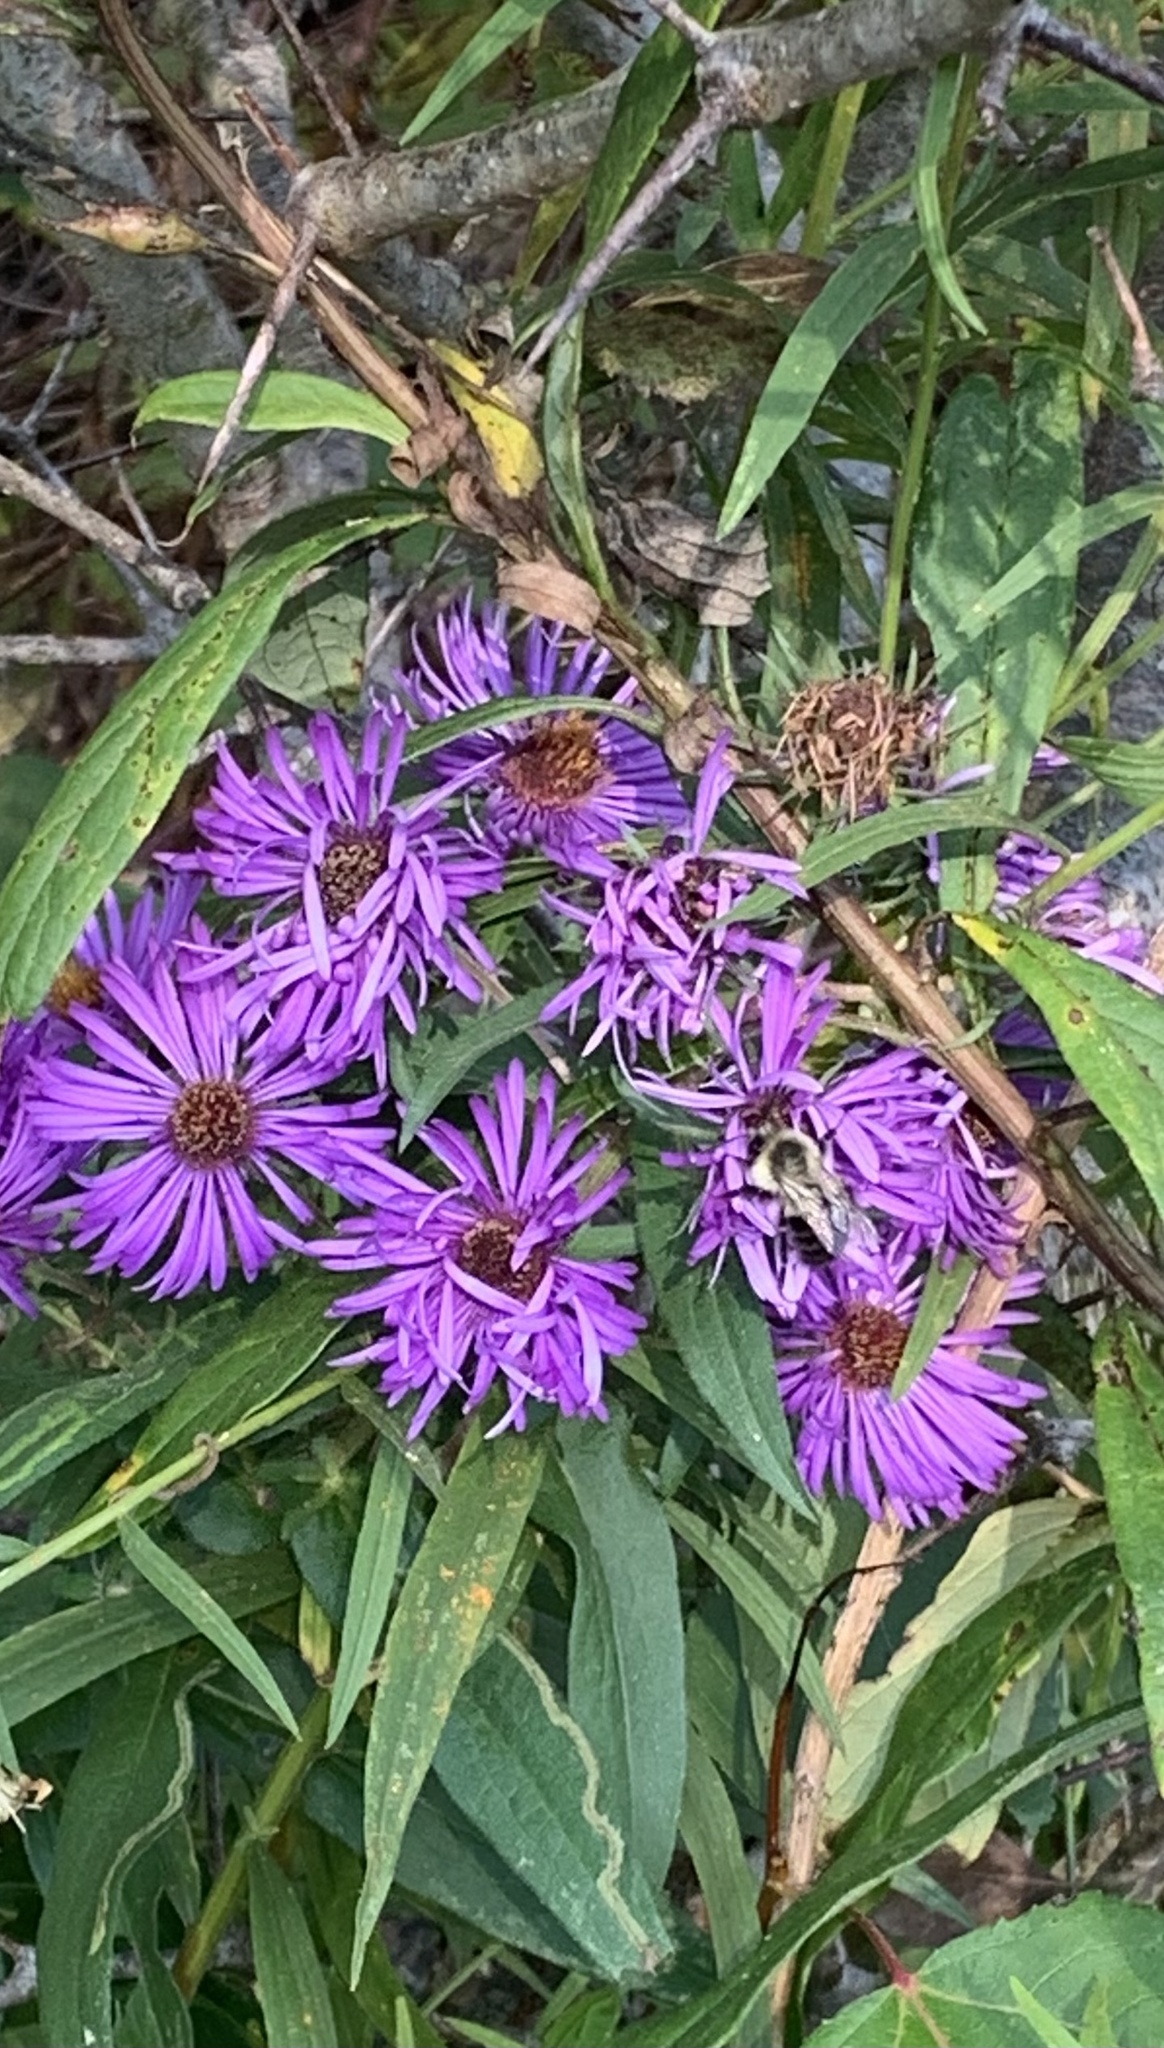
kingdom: Plantae
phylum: Tracheophyta
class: Magnoliopsida
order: Asterales
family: Asteraceae
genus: Symphyotrichum
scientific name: Symphyotrichum novae-angliae
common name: Michaelmas daisy
